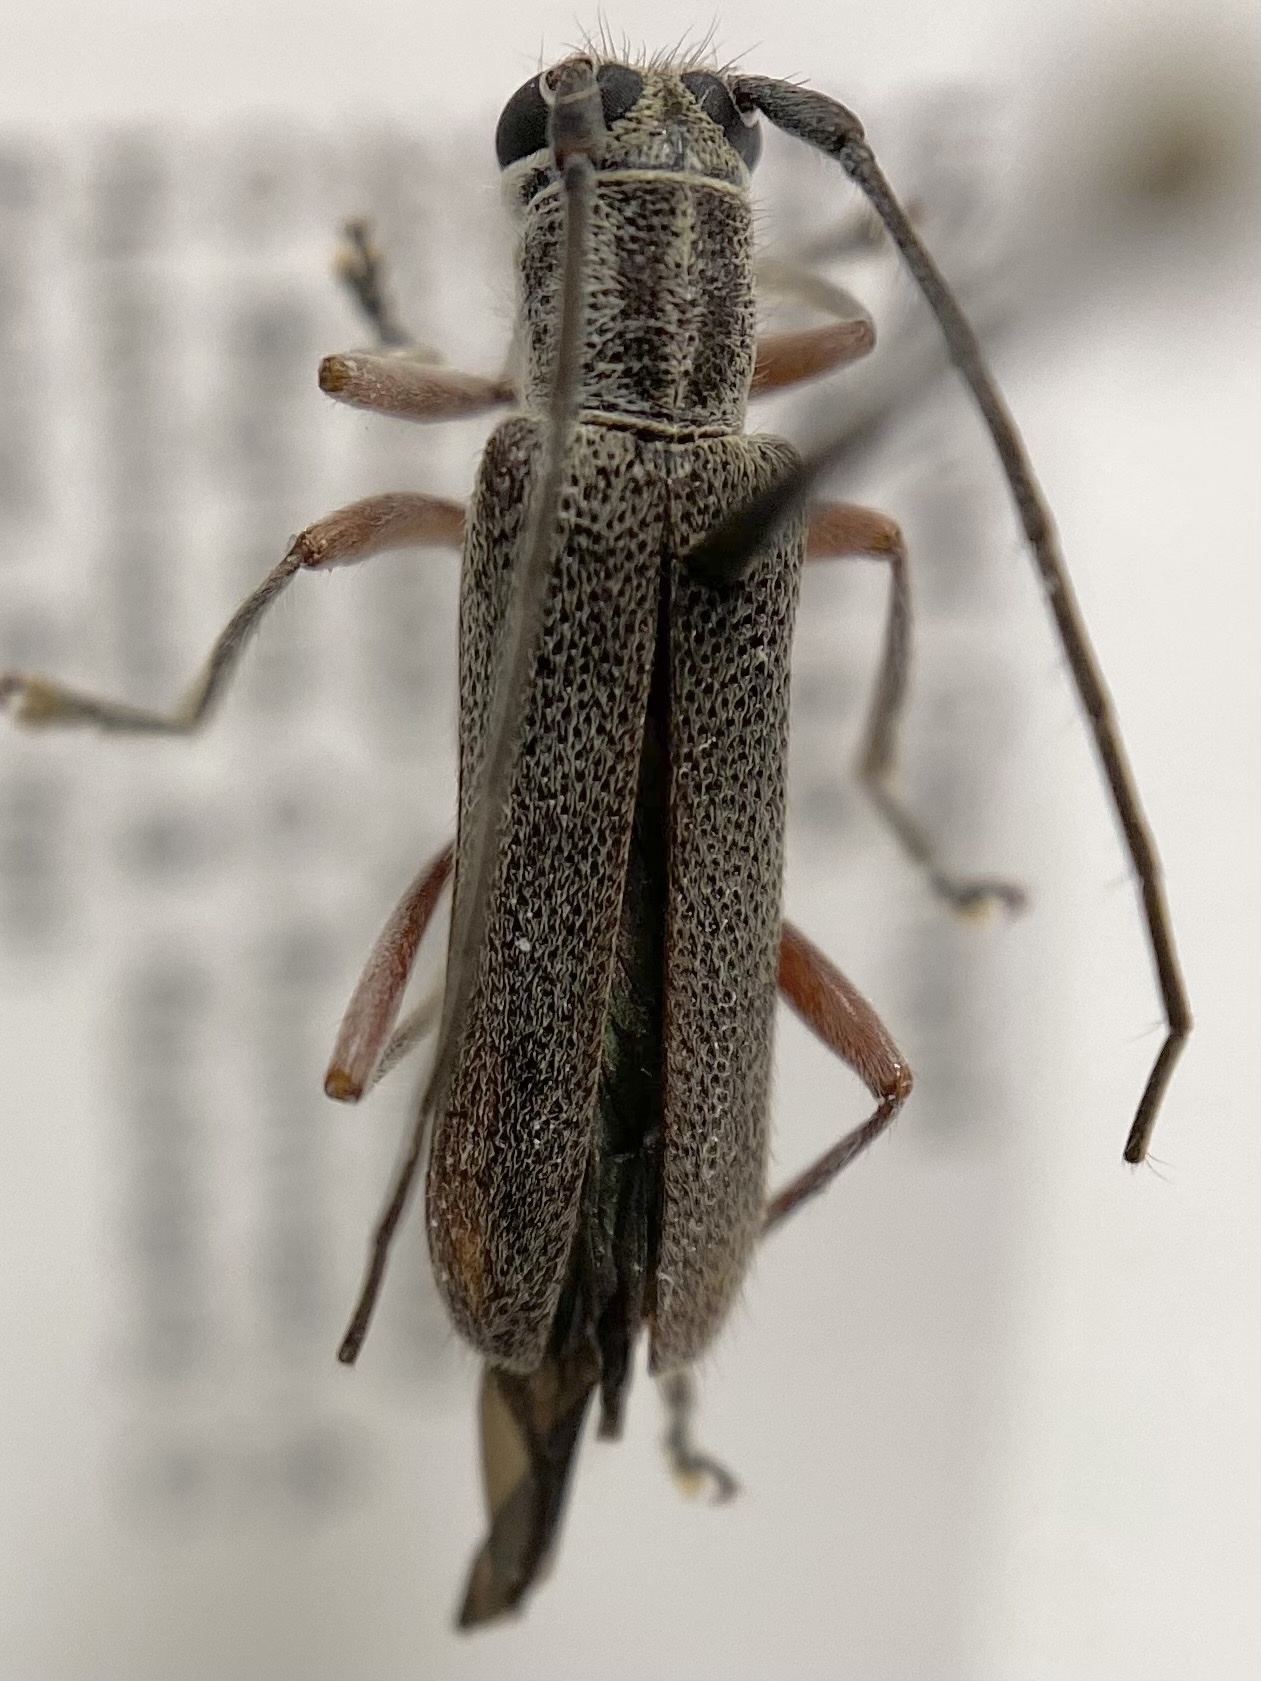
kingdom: Animalia
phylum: Arthropoda
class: Insecta
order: Coleoptera
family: Cerambycidae
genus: Saperda
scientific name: Saperda discoidea
